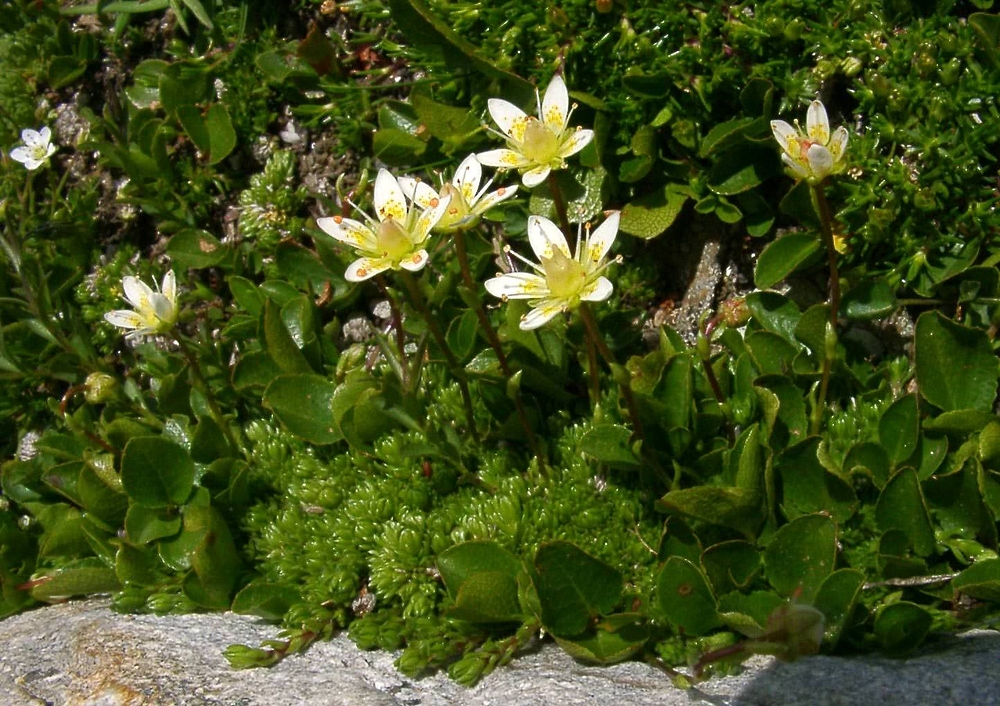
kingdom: Plantae
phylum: Tracheophyta
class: Magnoliopsida
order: Saxifragales
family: Saxifragaceae
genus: Saxifraga
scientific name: Saxifraga bryoides
